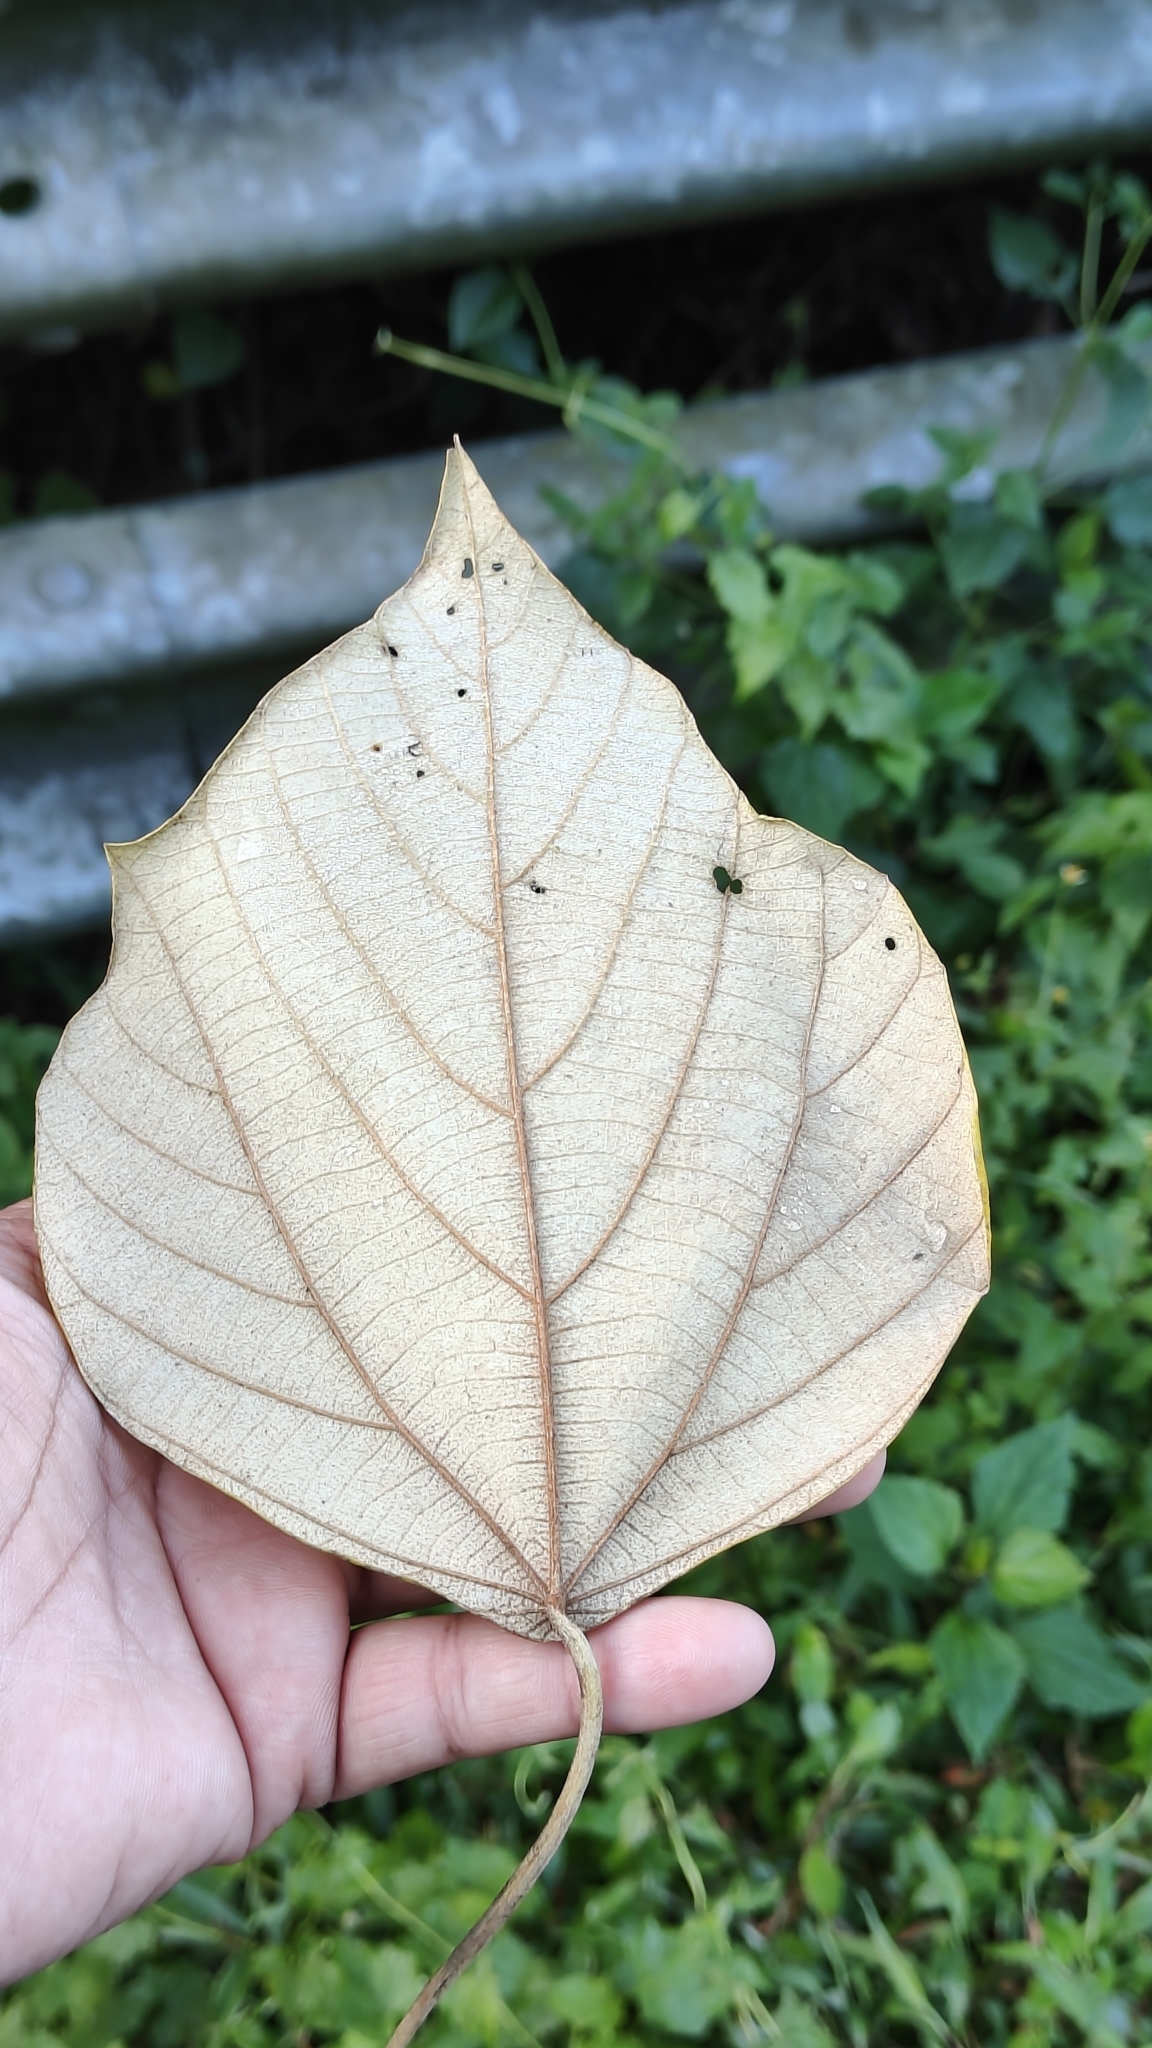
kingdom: Plantae
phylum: Tracheophyta
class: Magnoliopsida
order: Malpighiales
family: Euphorbiaceae
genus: Mallotus
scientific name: Mallotus tetracoccus
